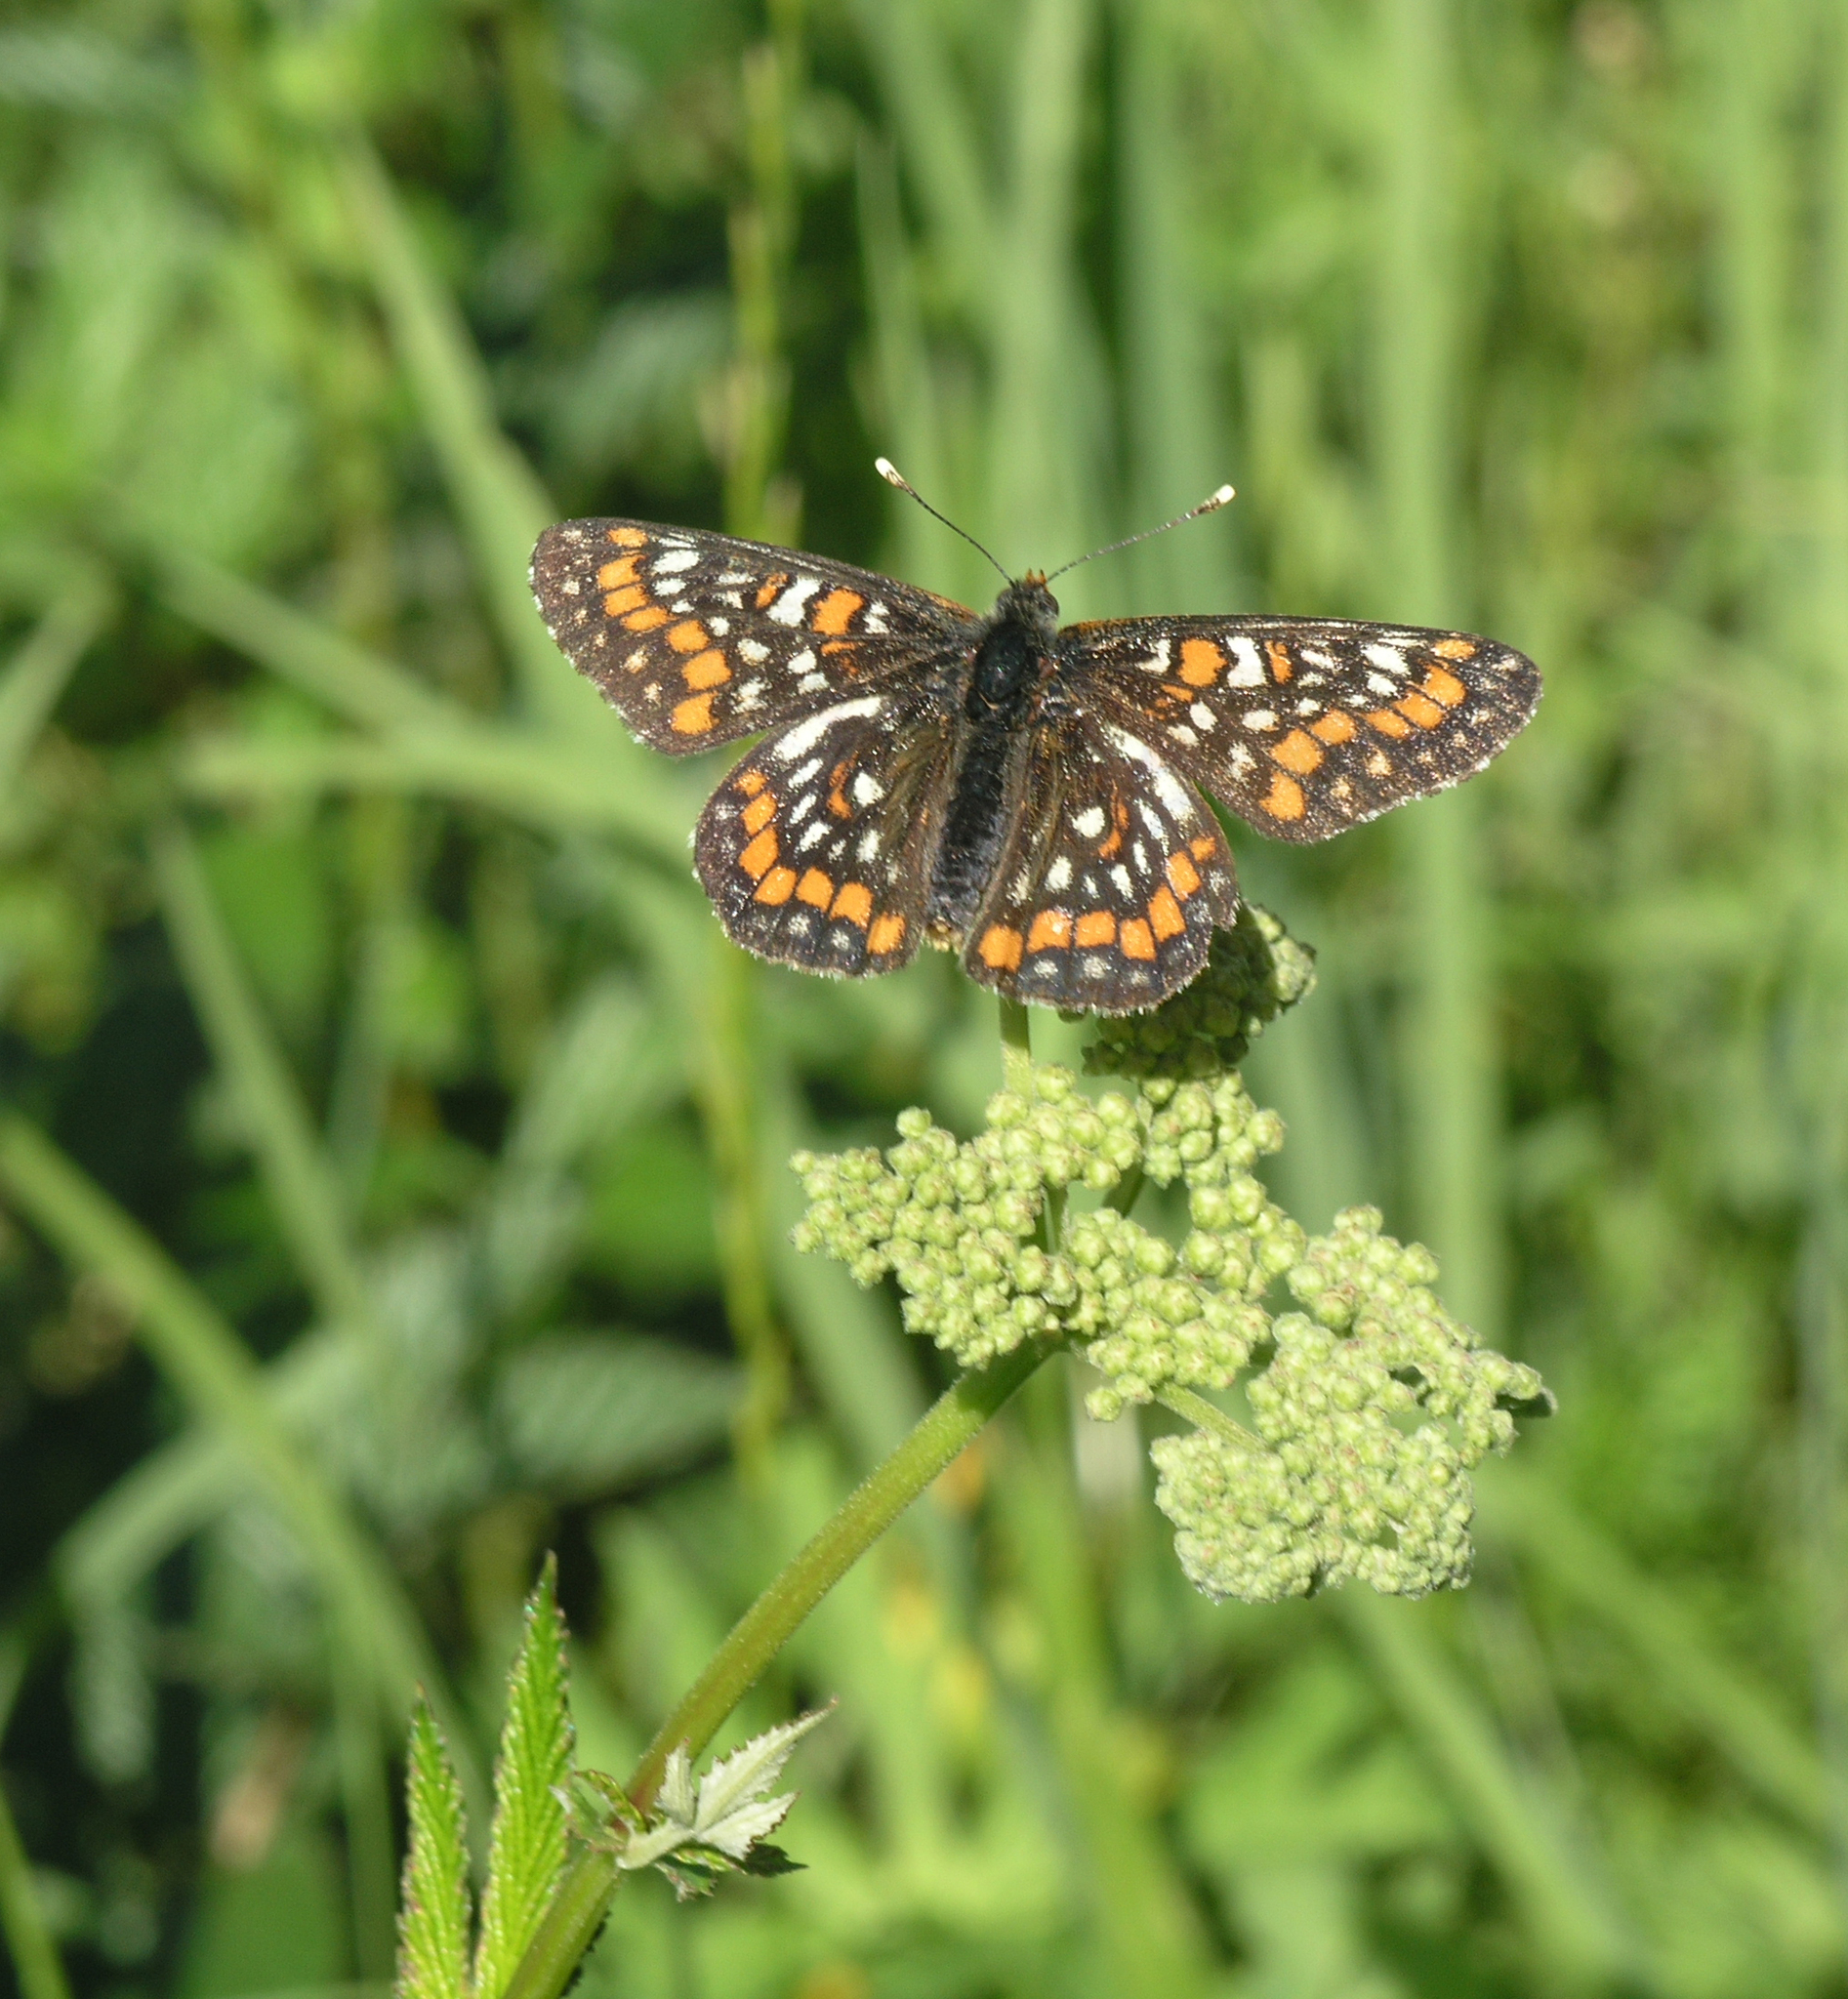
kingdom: Animalia
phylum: Arthropoda
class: Insecta
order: Lepidoptera
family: Nymphalidae
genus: Euphydryas
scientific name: Euphydryas maturna
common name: Scarce fritillary
